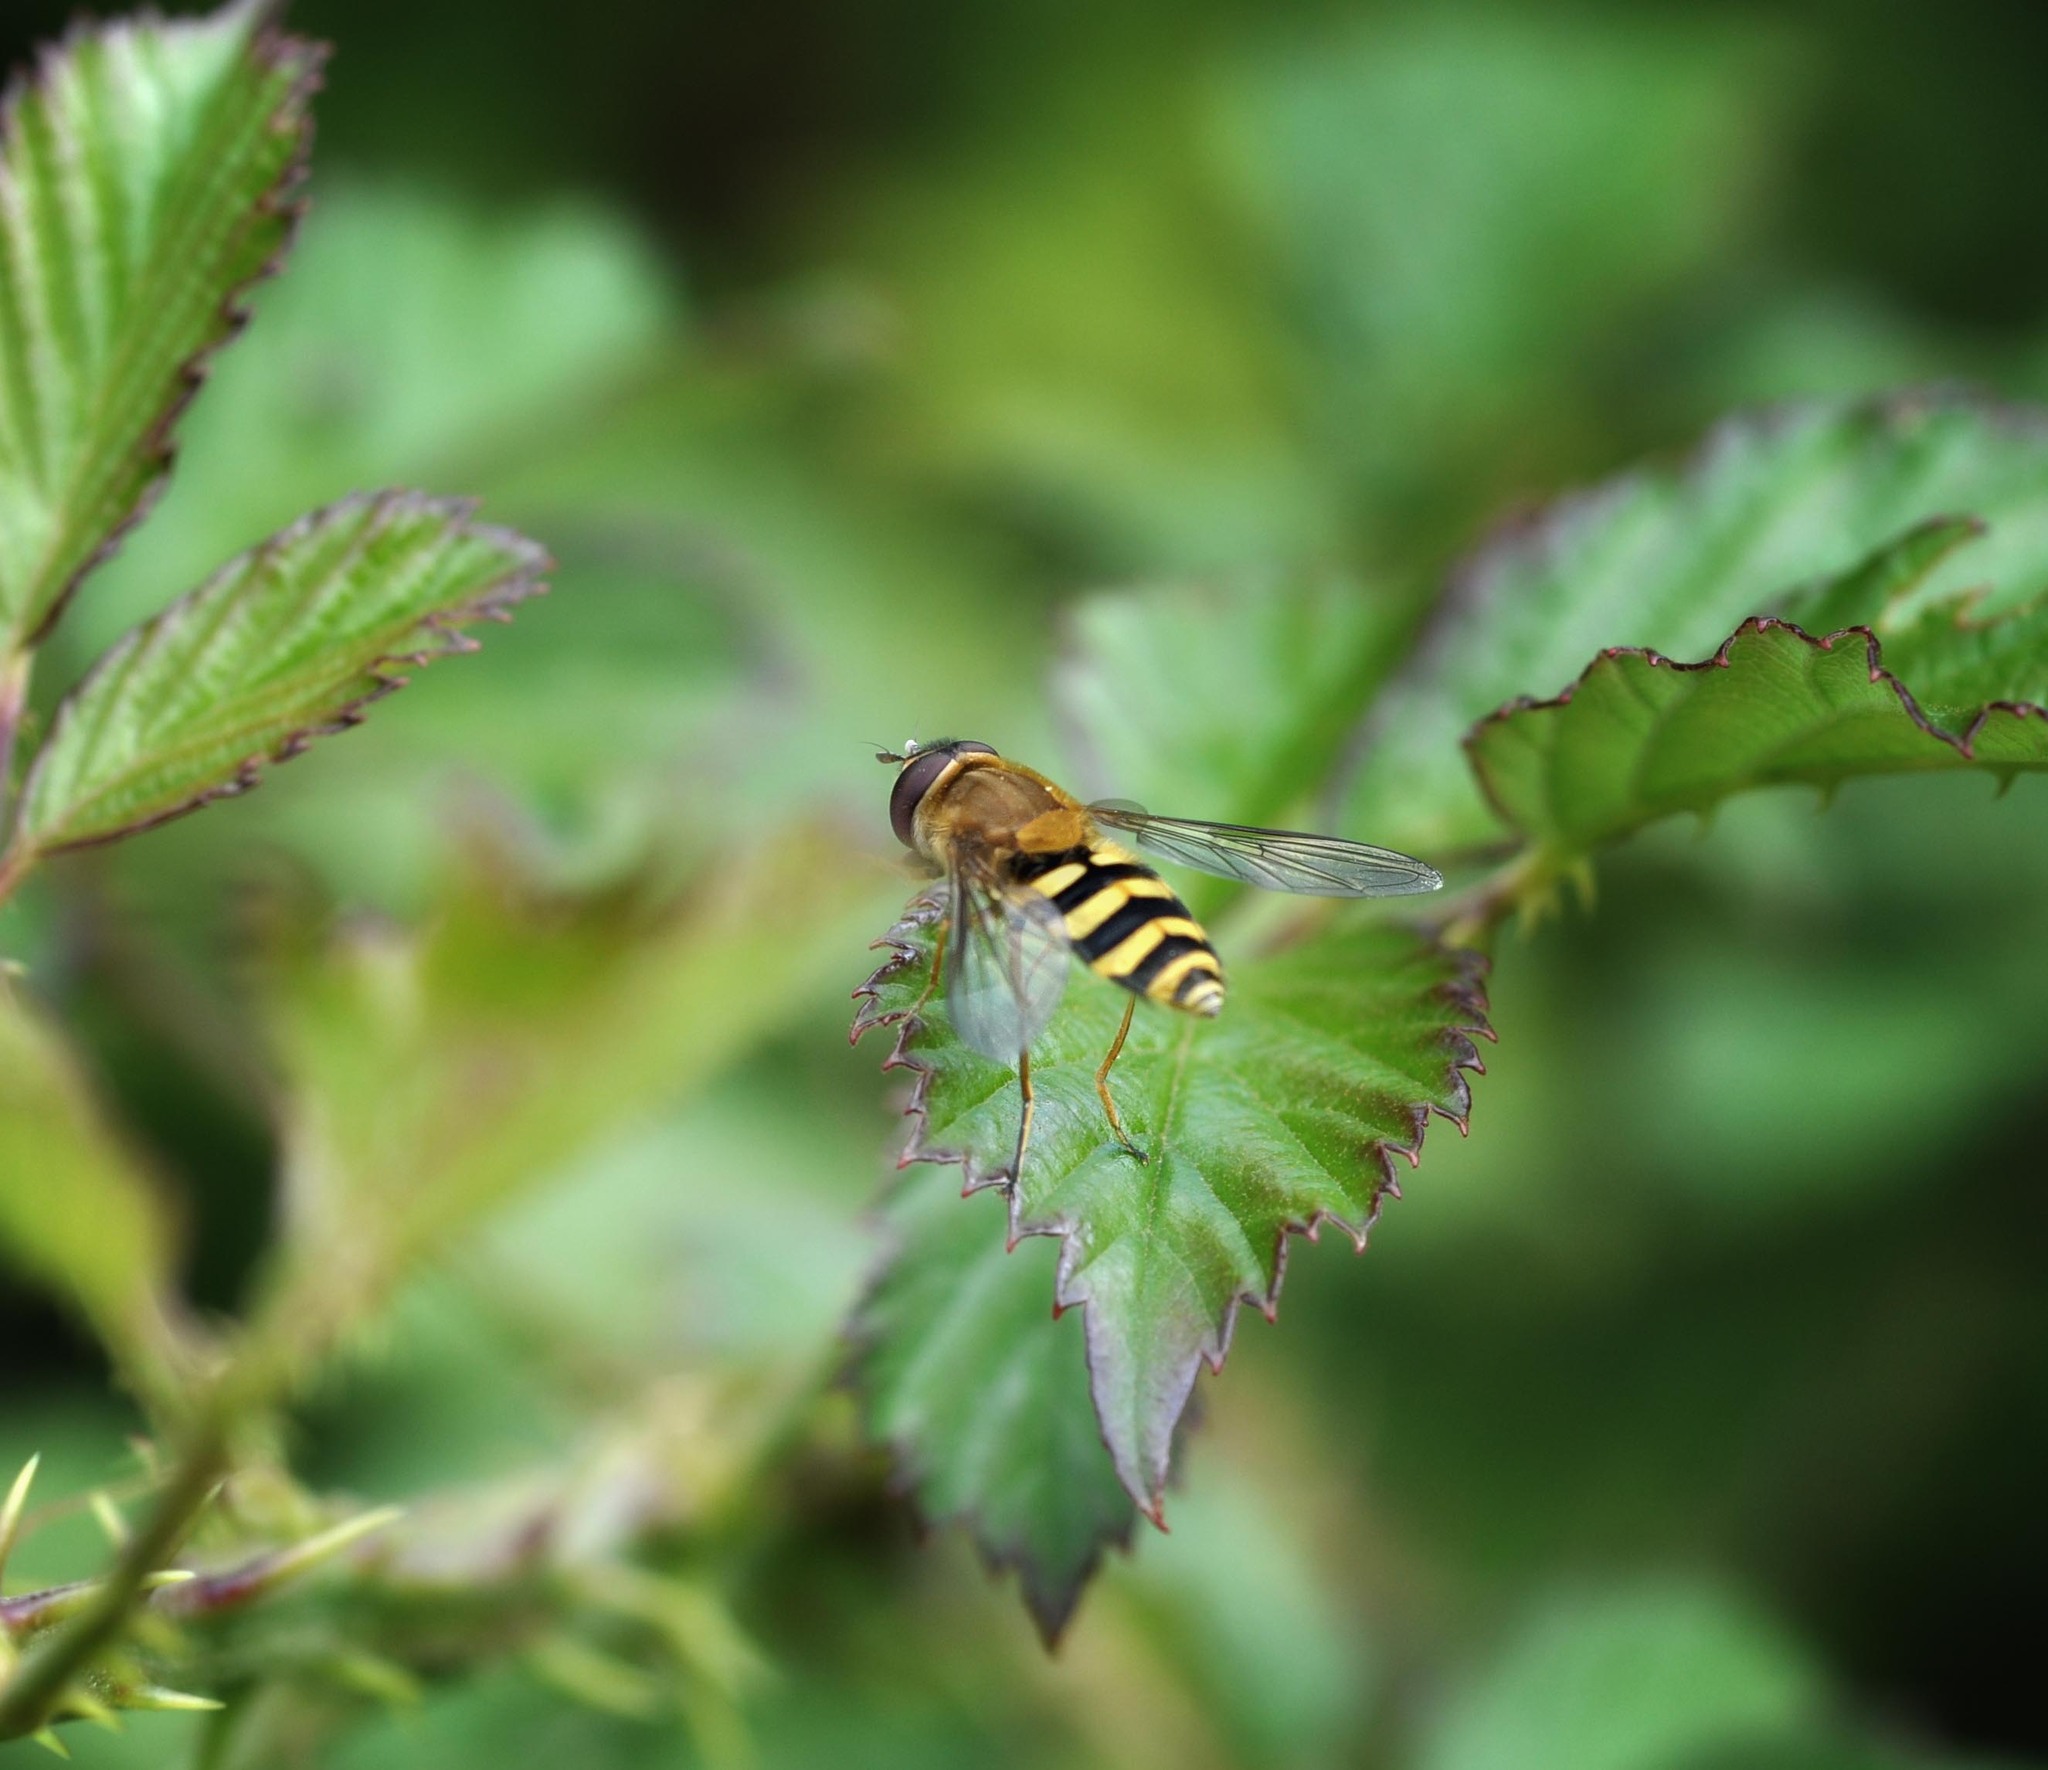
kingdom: Animalia
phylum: Arthropoda
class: Insecta
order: Diptera
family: Syrphidae
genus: Syrphus
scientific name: Syrphus ribesii
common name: Common flower fly
